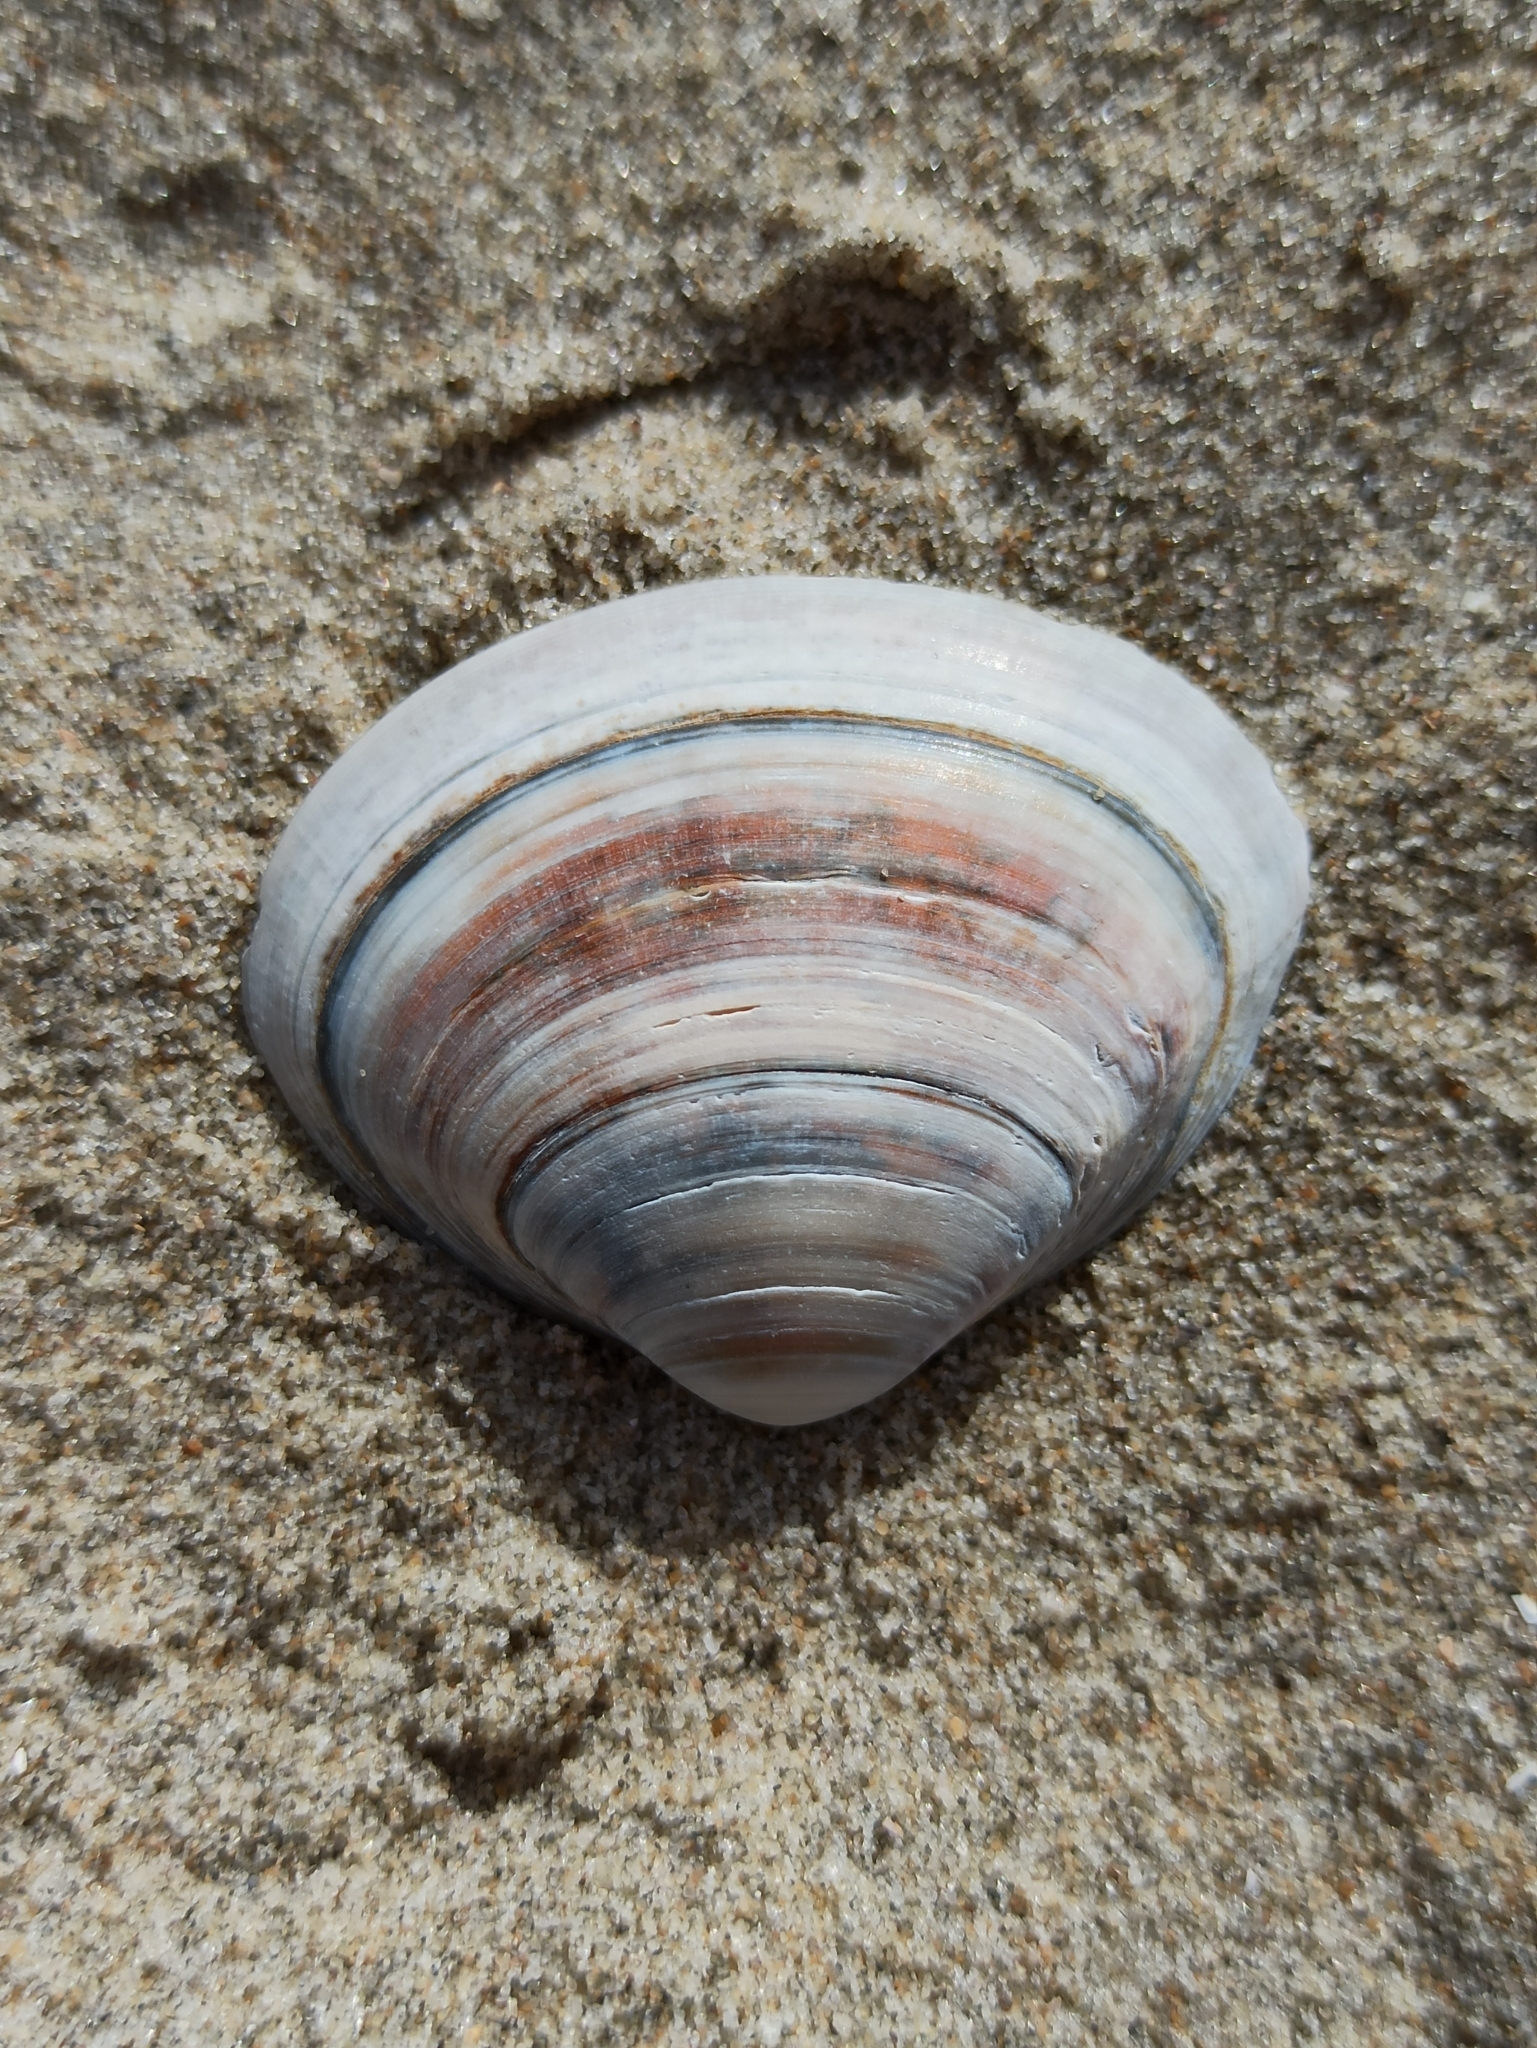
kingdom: Animalia
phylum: Mollusca
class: Bivalvia
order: Venerida
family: Mactridae
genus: Spisula
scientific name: Spisula solida
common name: Thick trough shell
